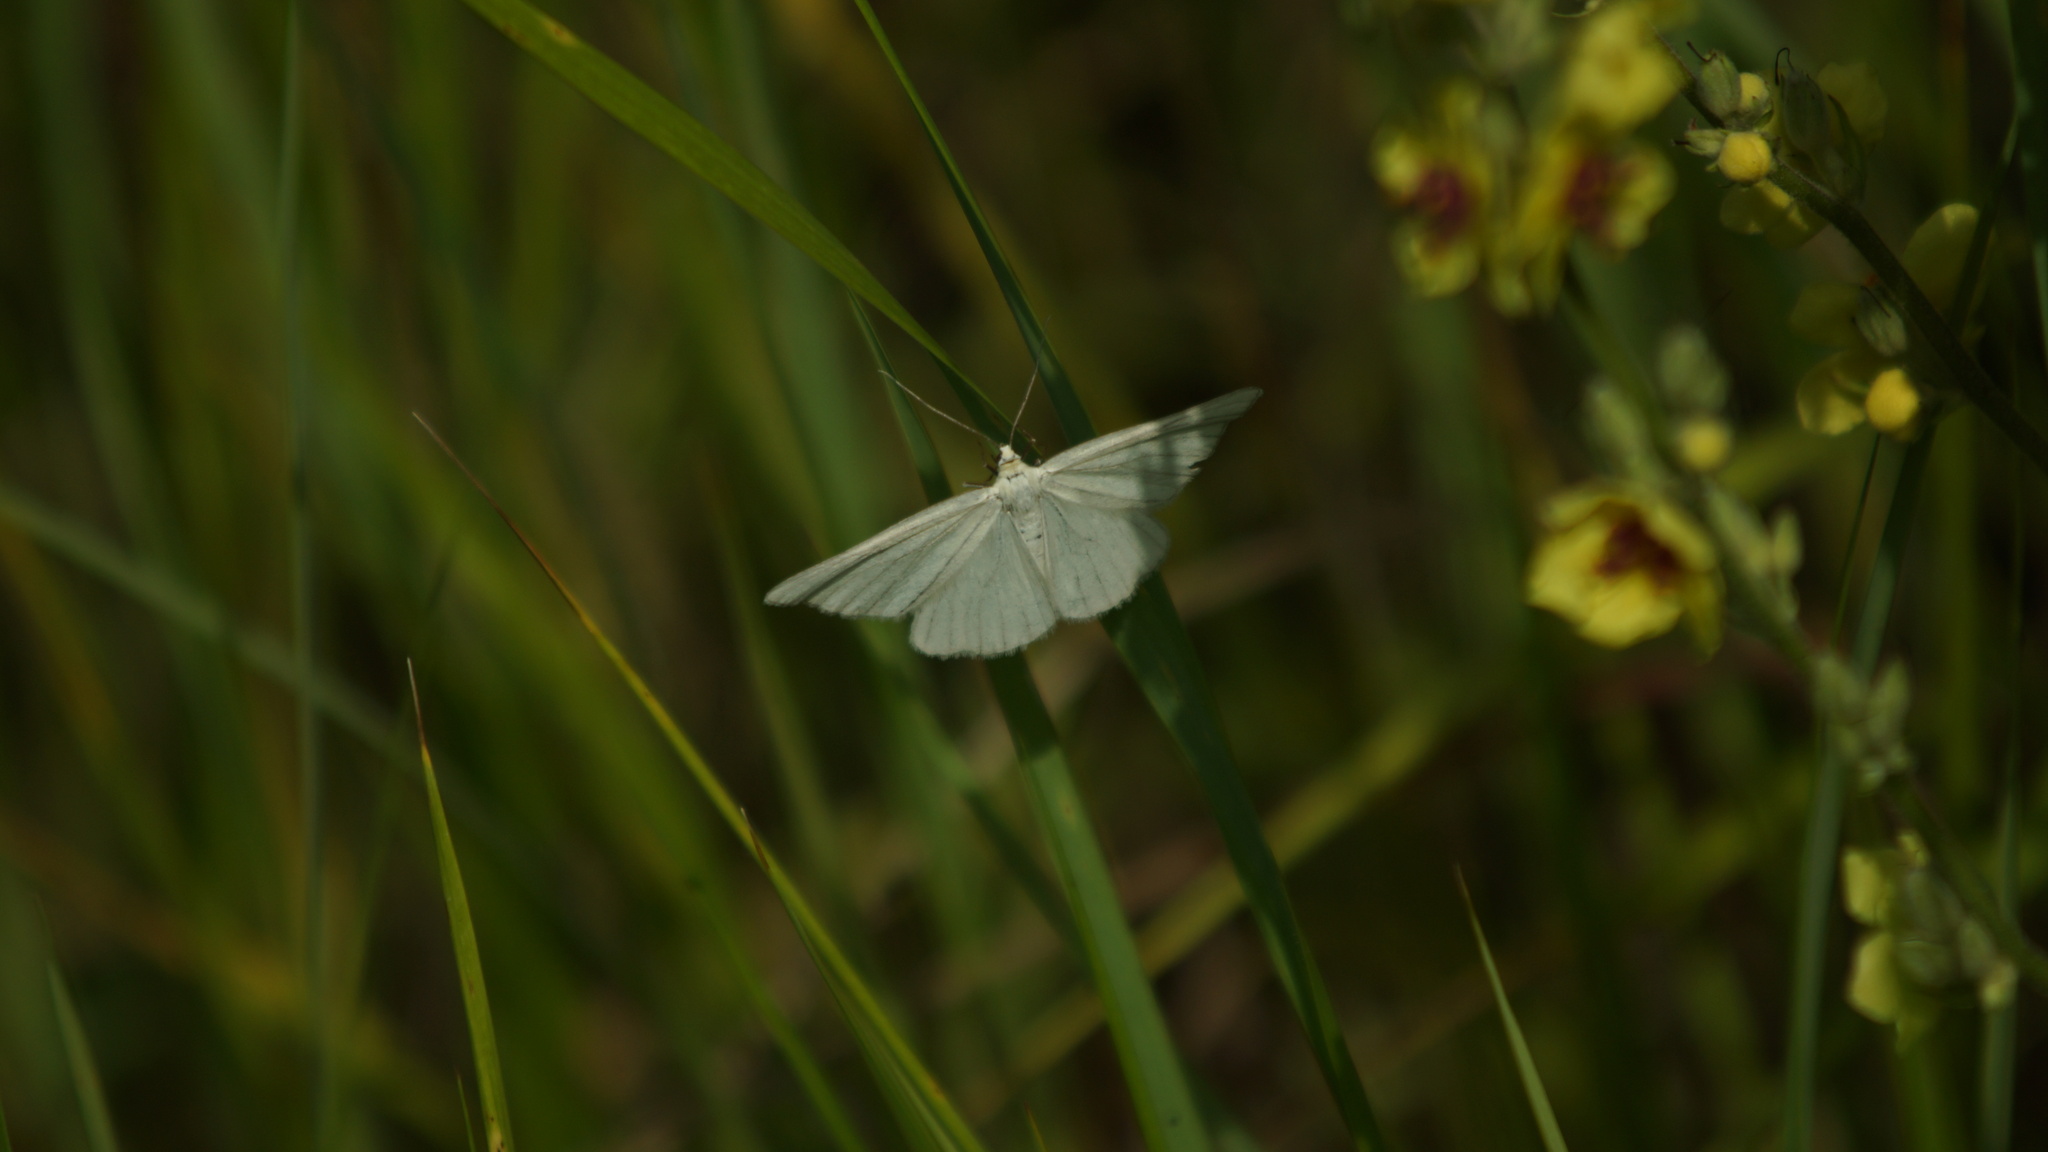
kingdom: Animalia
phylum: Arthropoda
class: Insecta
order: Lepidoptera
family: Geometridae
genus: Siona
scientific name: Siona lineata
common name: Black-veined moth
